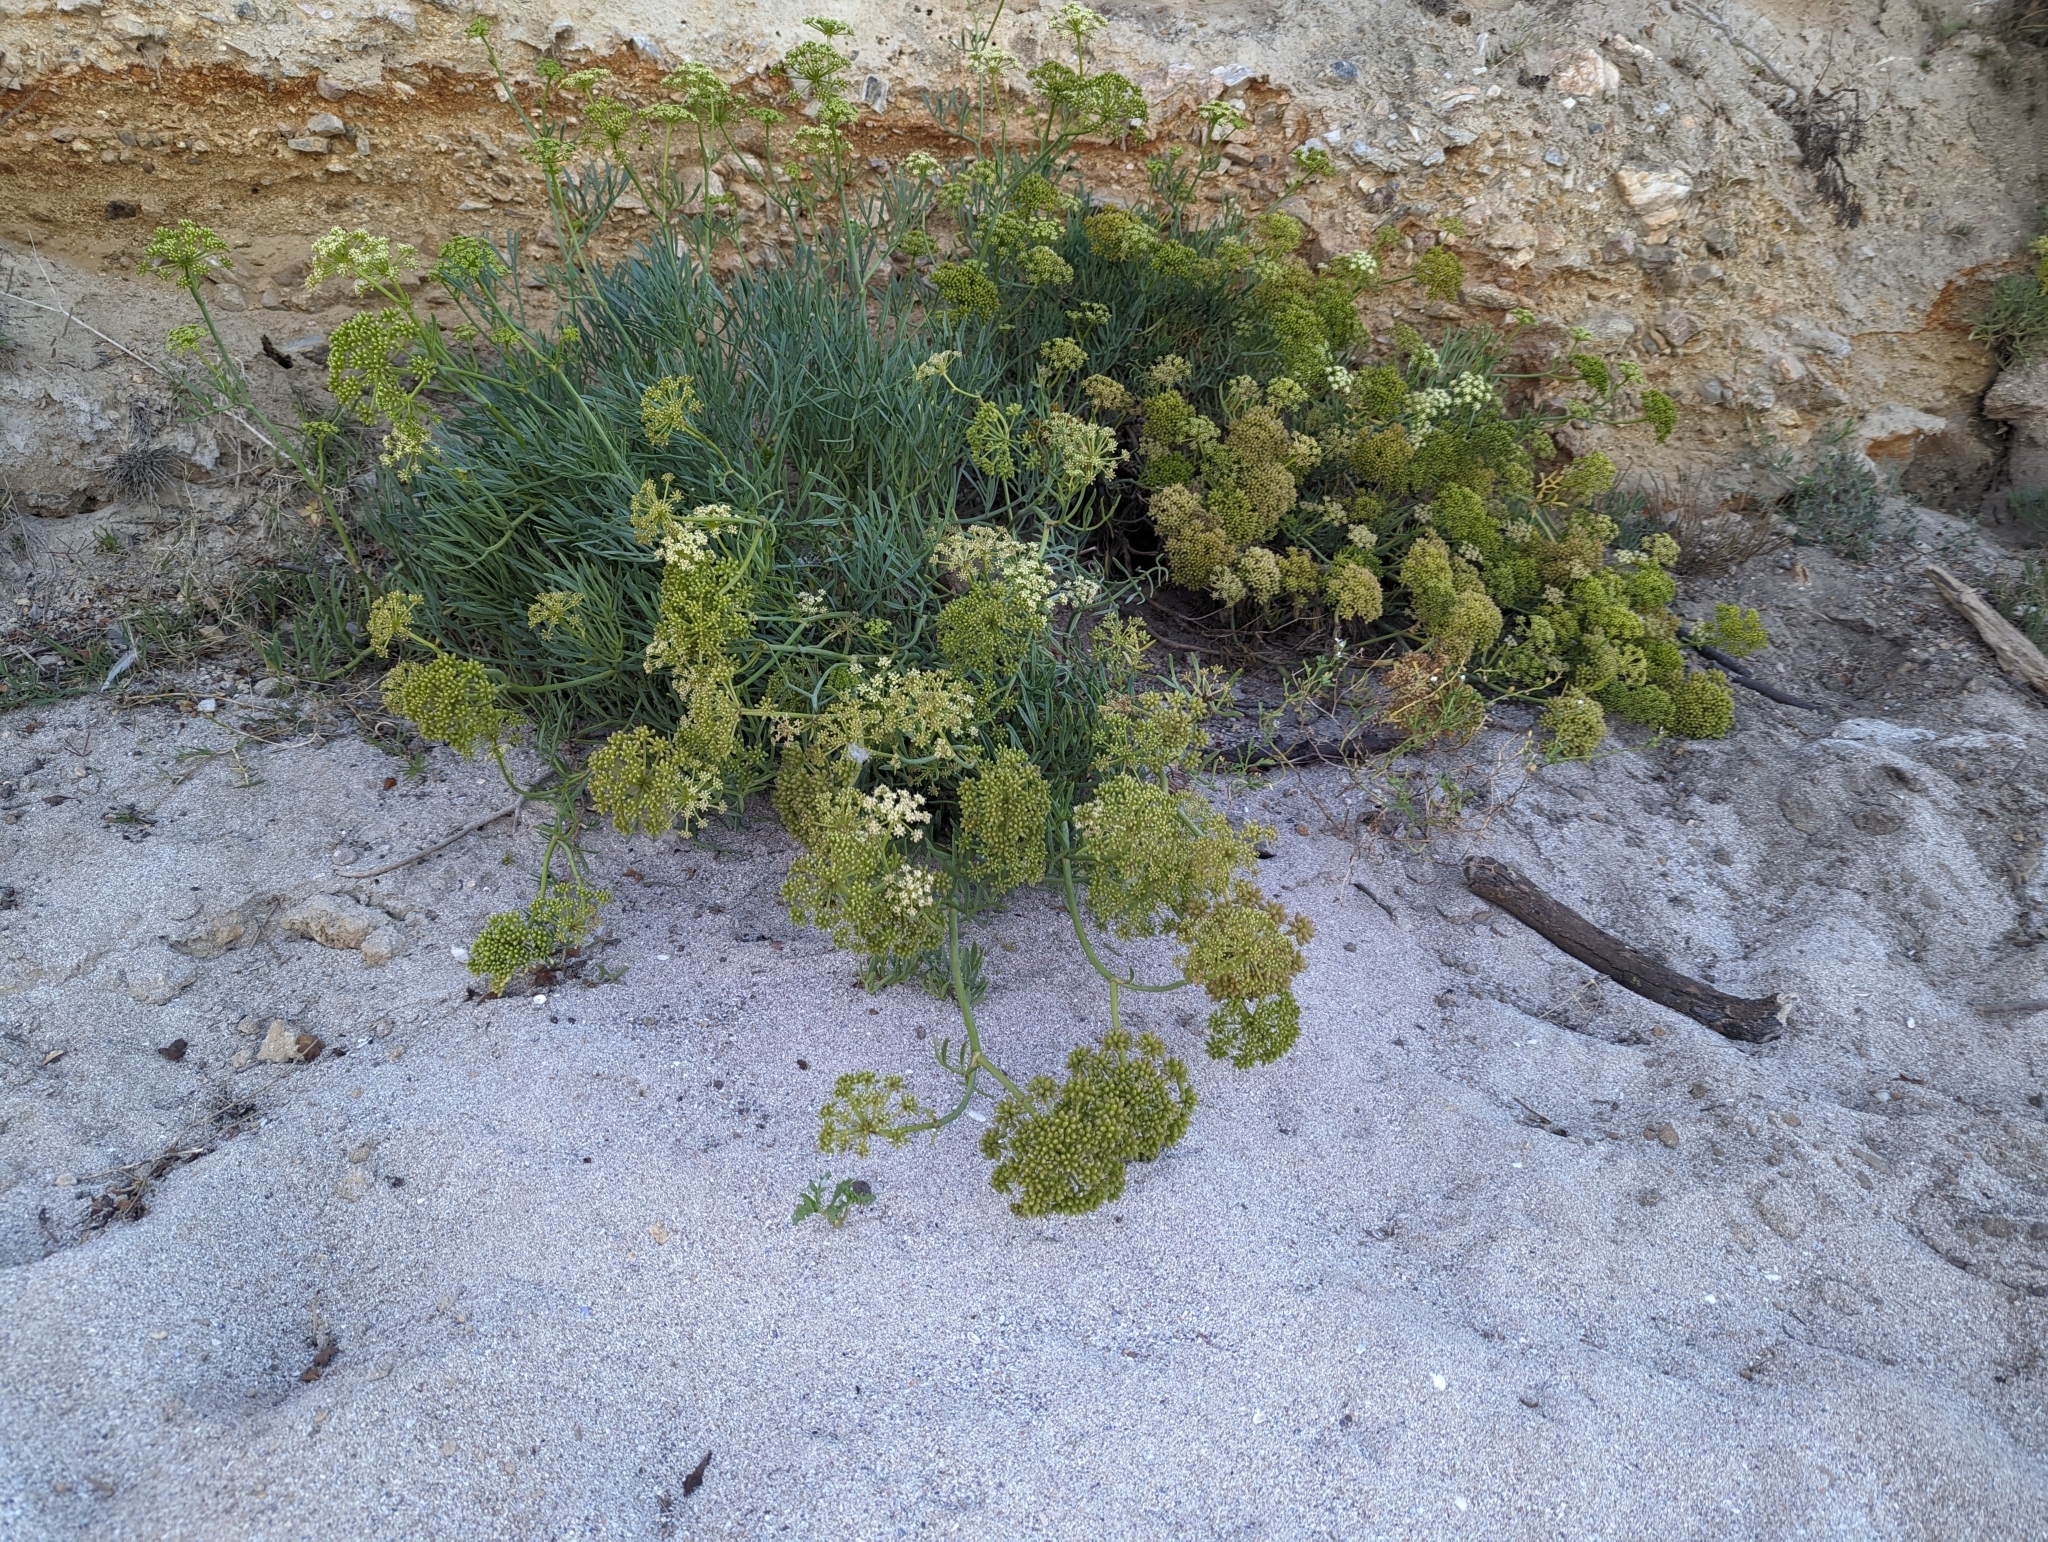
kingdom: Plantae
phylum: Tracheophyta
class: Magnoliopsida
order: Apiales
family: Apiaceae
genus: Crithmum
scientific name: Crithmum maritimum
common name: Rock samphire
